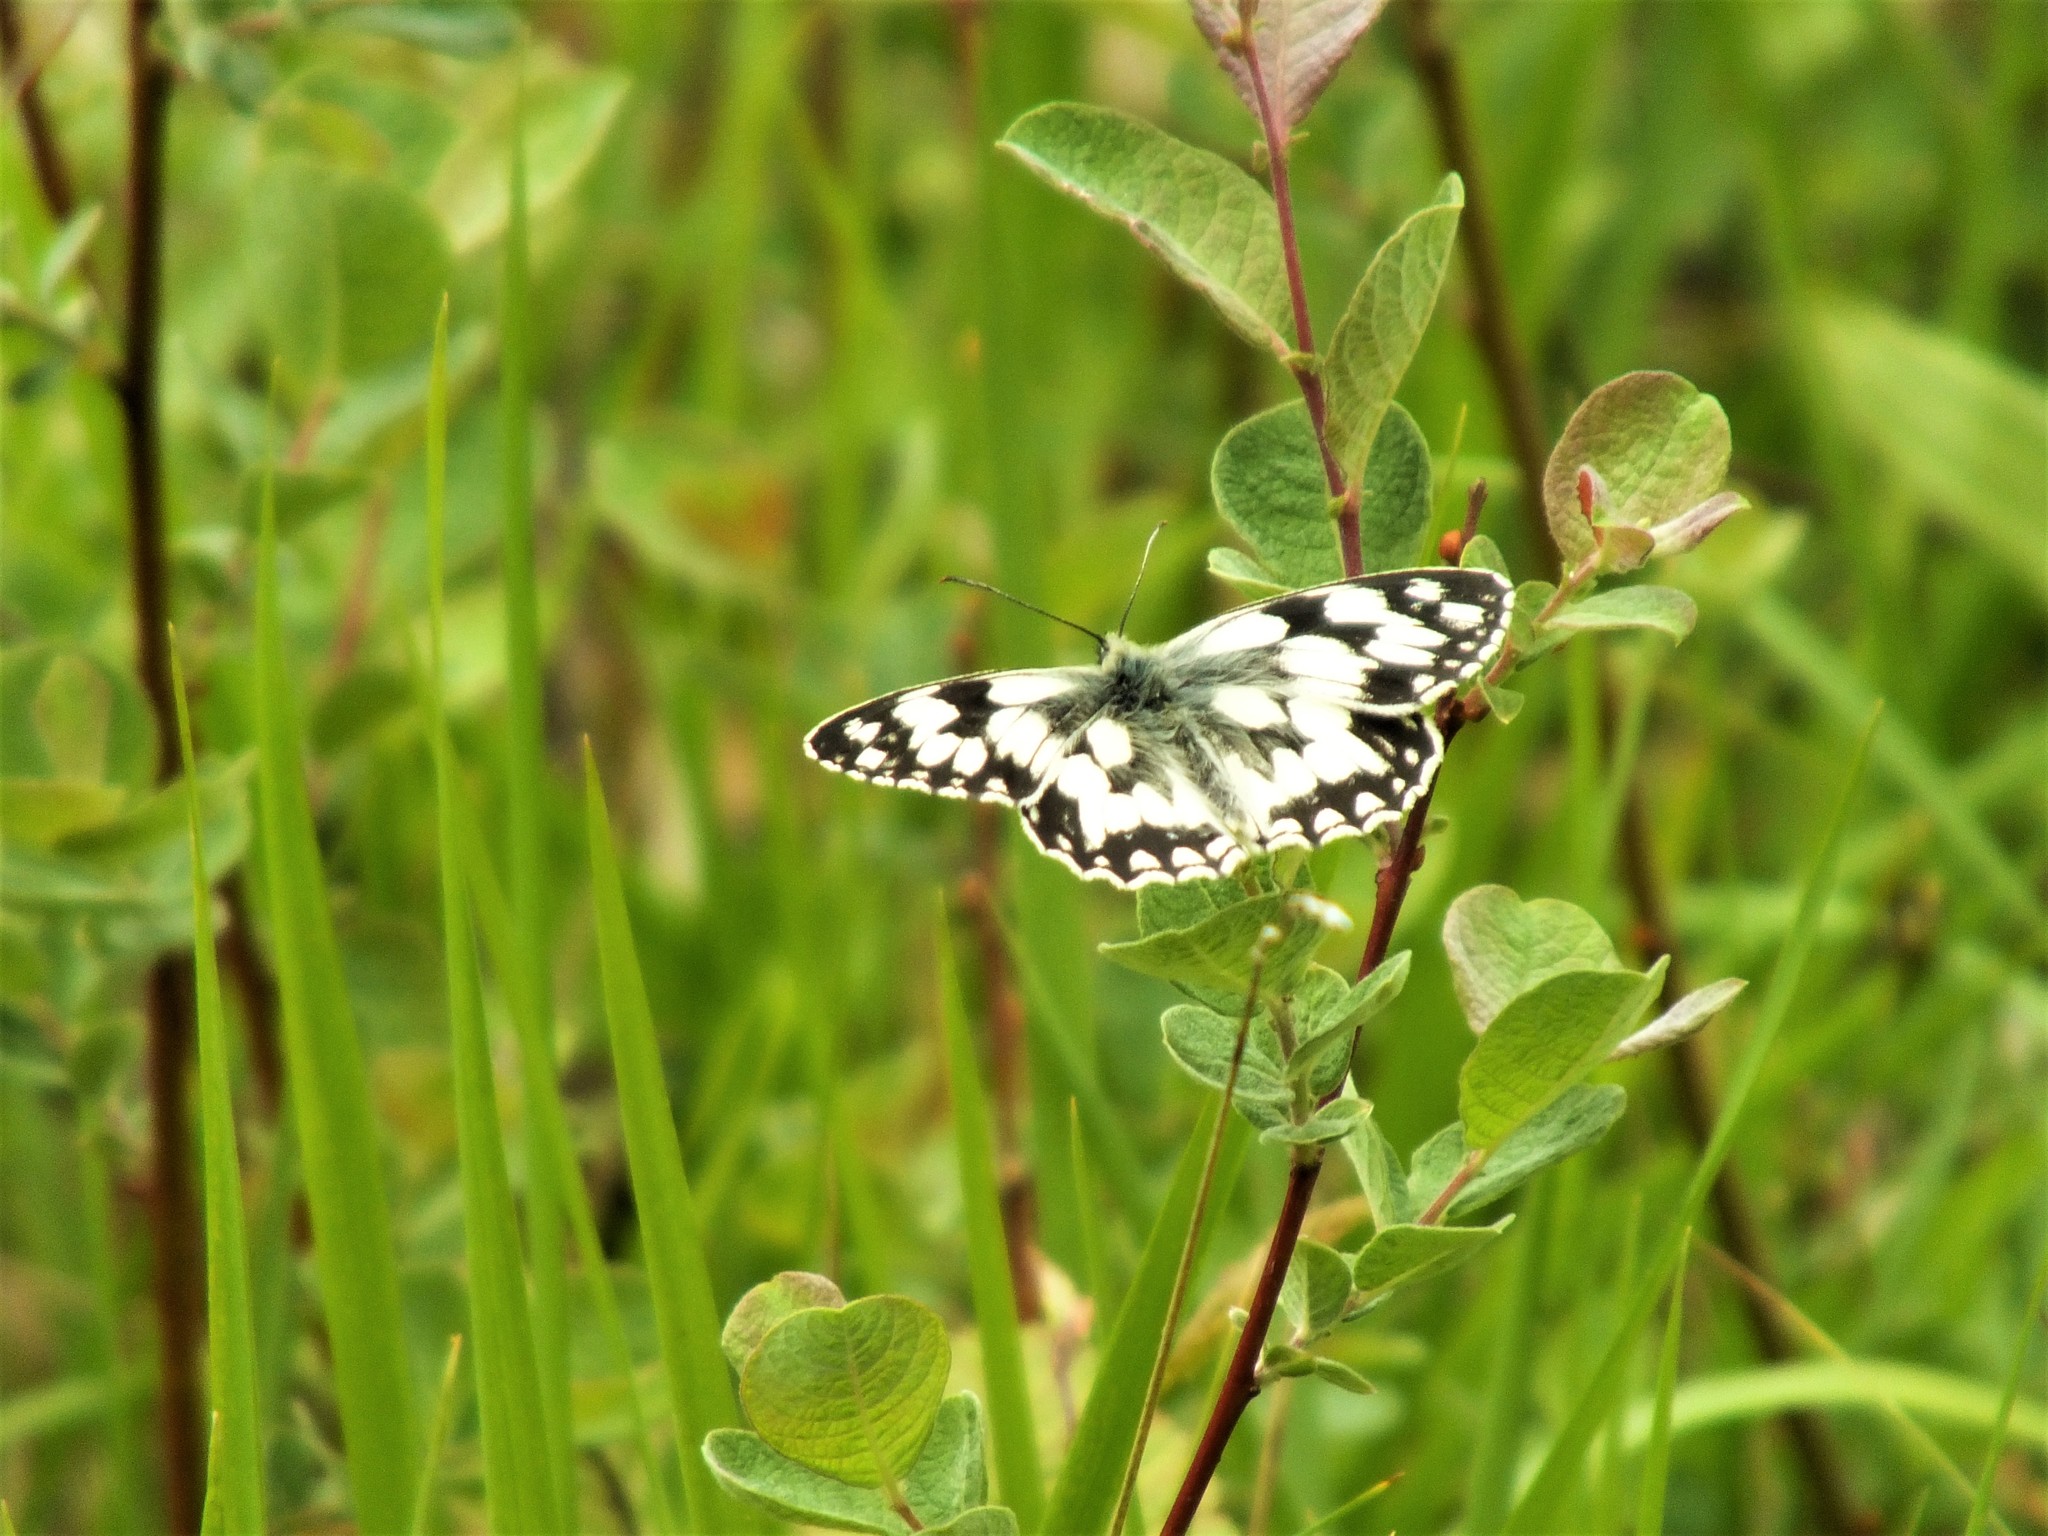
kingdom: Animalia
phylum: Arthropoda
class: Insecta
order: Lepidoptera
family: Nymphalidae
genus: Melanargia
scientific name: Melanargia galathea
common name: Marbled white
